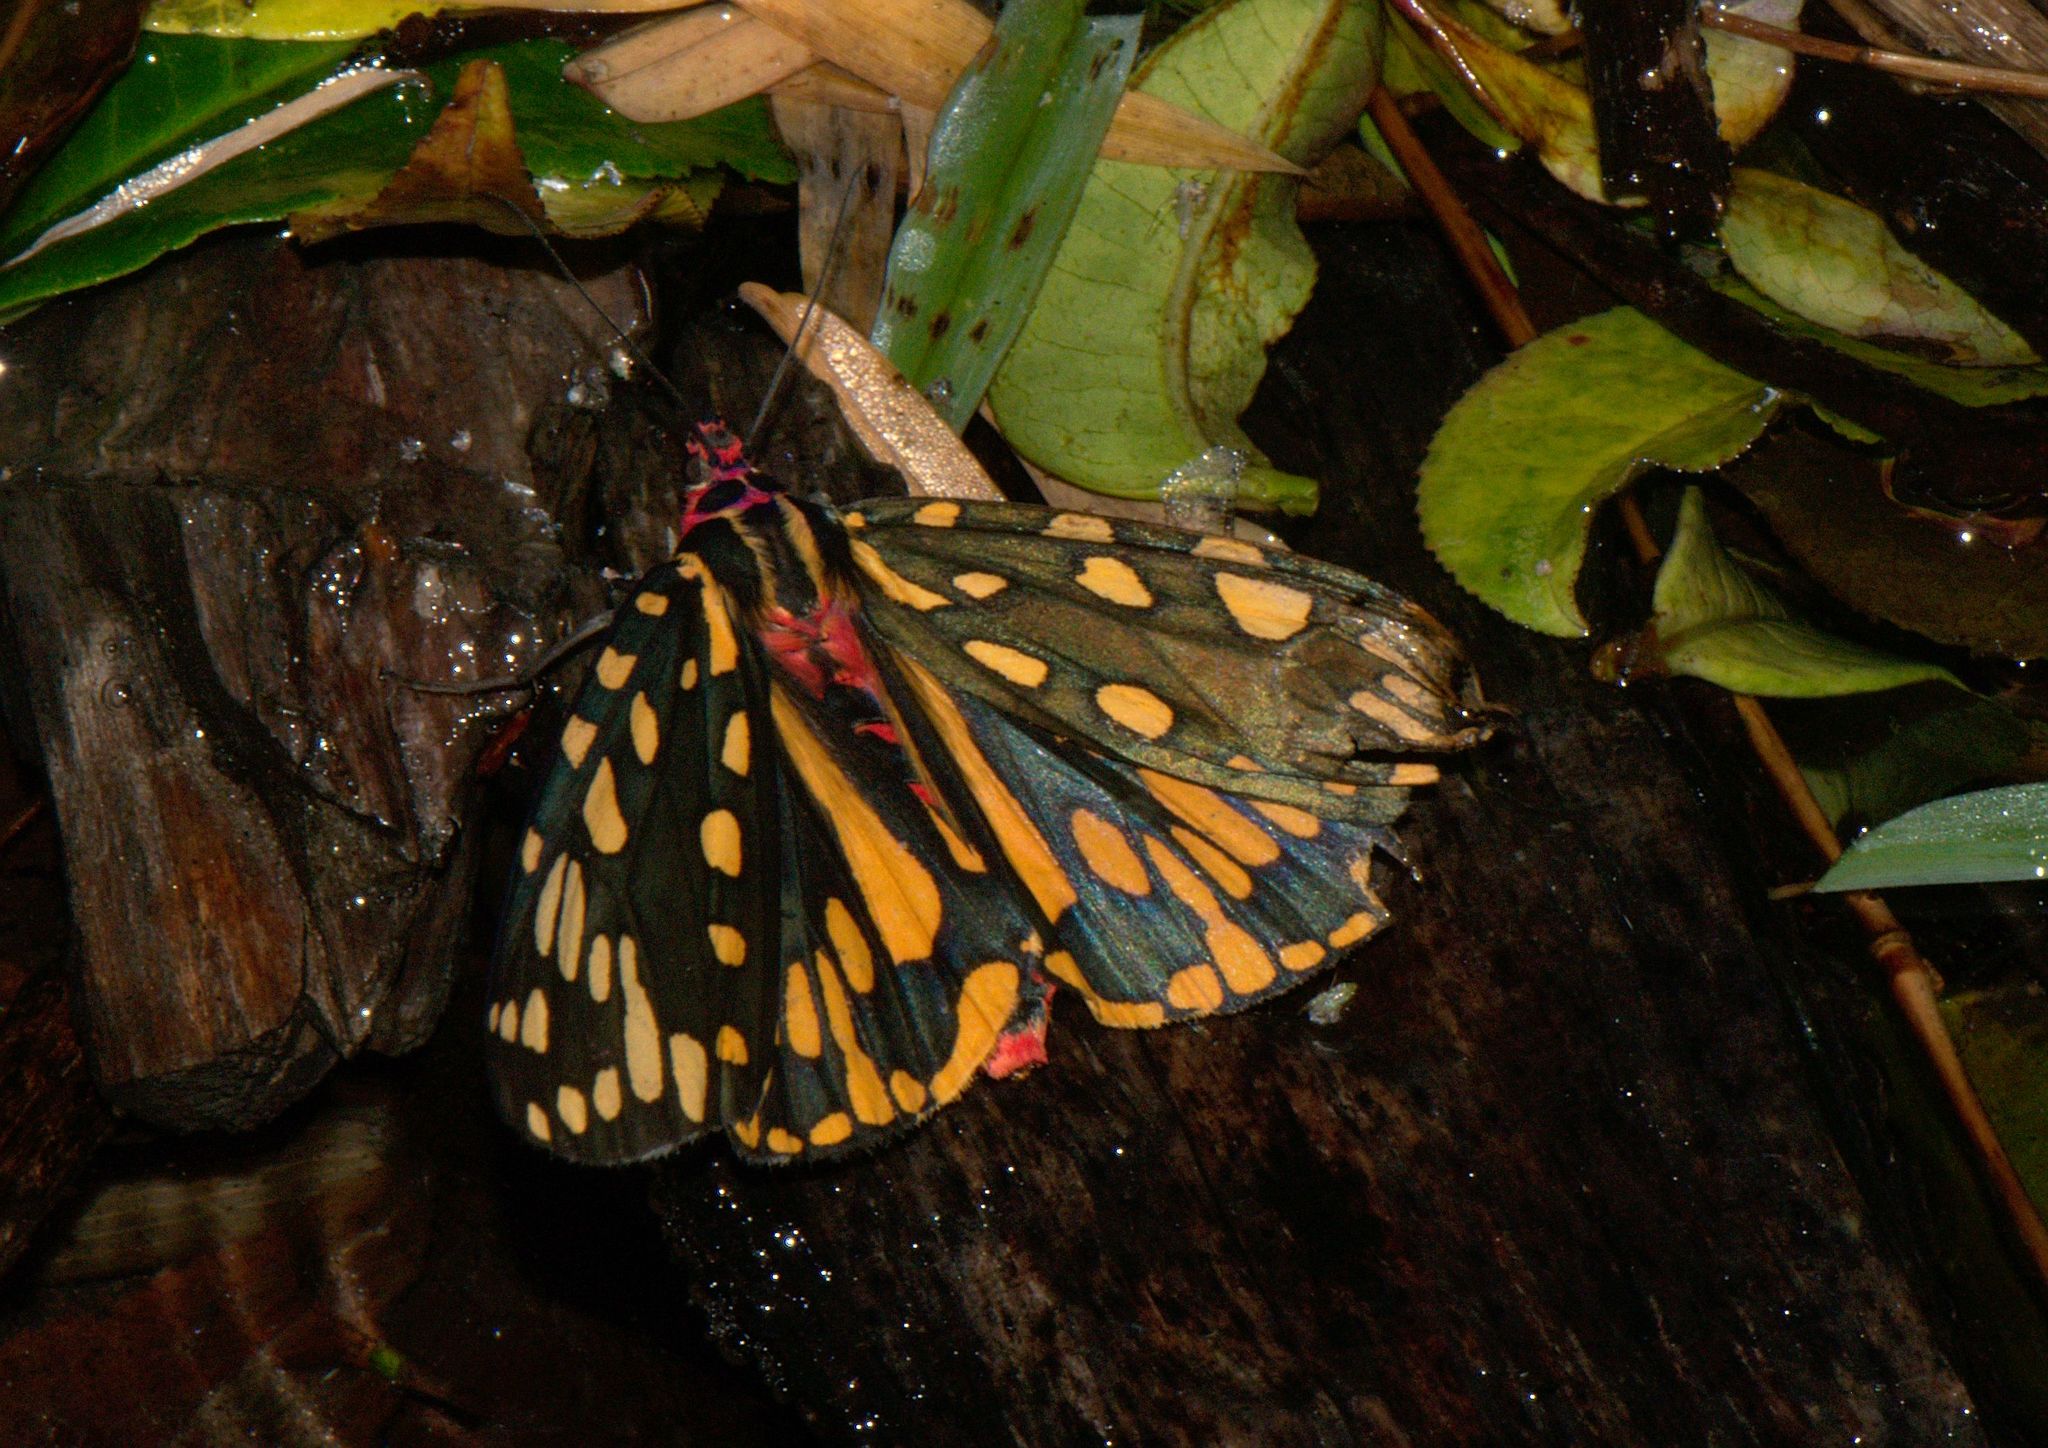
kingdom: Animalia
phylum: Arthropoda
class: Insecta
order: Lepidoptera
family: Erebidae
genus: Callindra
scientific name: Callindra principalis
